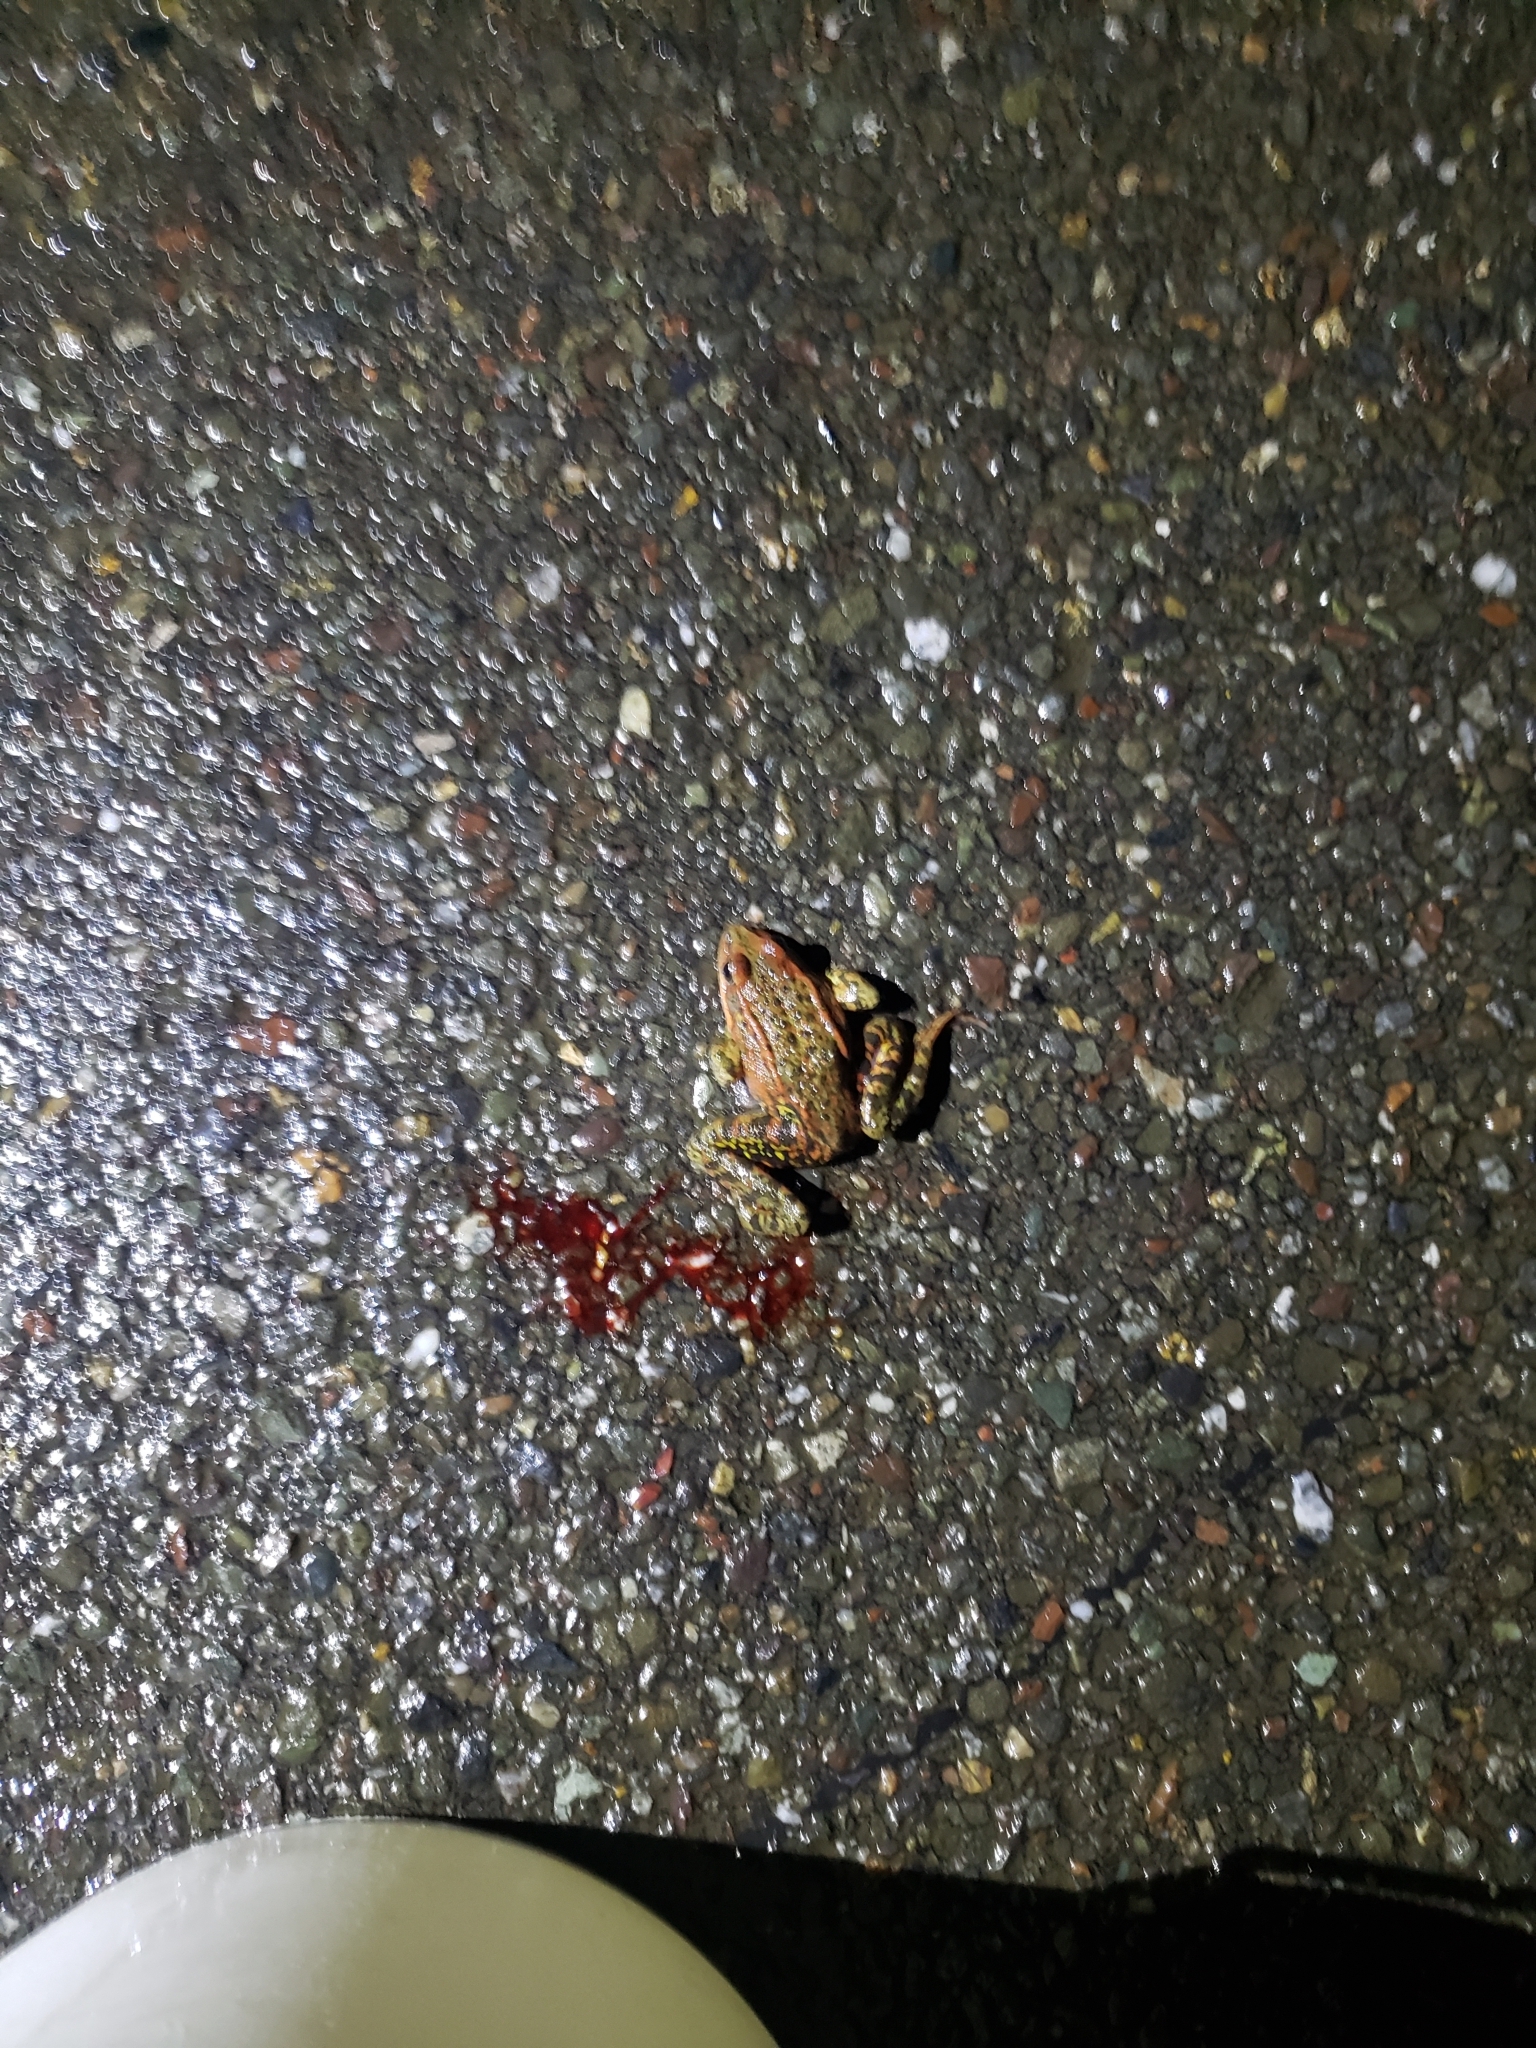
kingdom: Animalia
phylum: Chordata
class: Amphibia
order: Anura
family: Ranidae
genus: Rana
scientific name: Rana draytonii
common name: California red-legged frog
